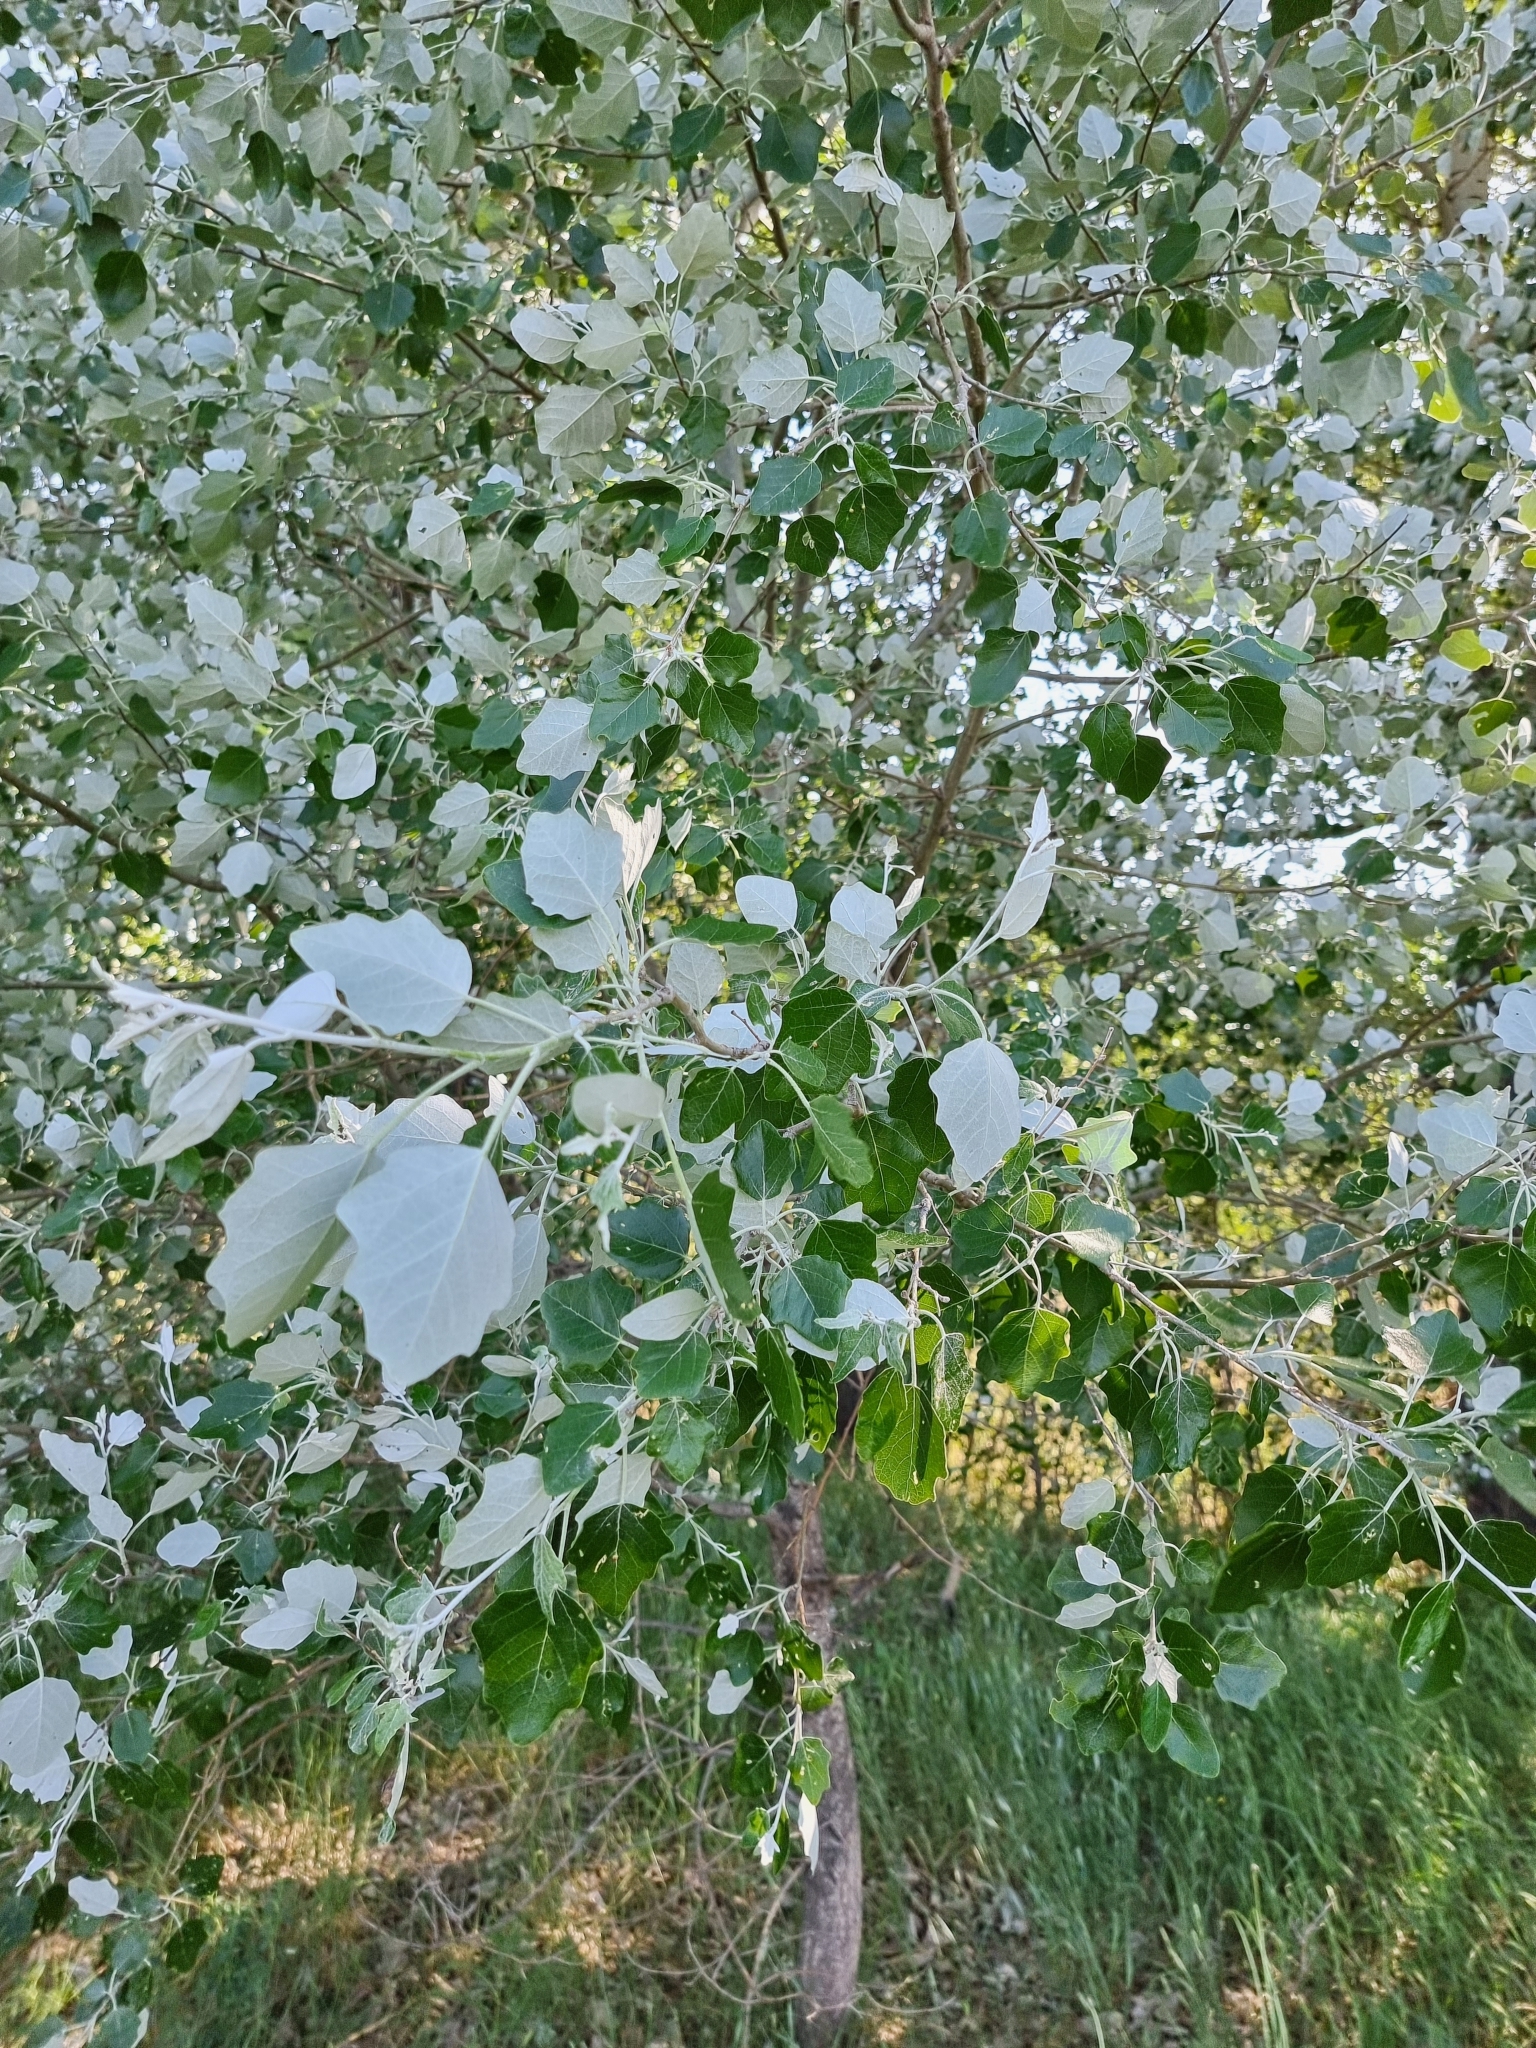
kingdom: Plantae
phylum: Tracheophyta
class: Magnoliopsida
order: Malpighiales
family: Salicaceae
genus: Populus
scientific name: Populus alba
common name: White poplar
